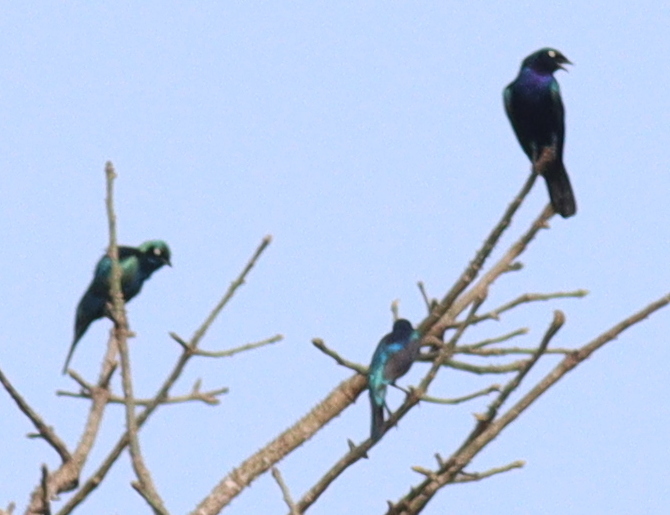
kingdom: Animalia
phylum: Chordata
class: Aves
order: Passeriformes
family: Sturnidae
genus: Lamprotornis
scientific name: Lamprotornis splendidus
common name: Splendid starling
